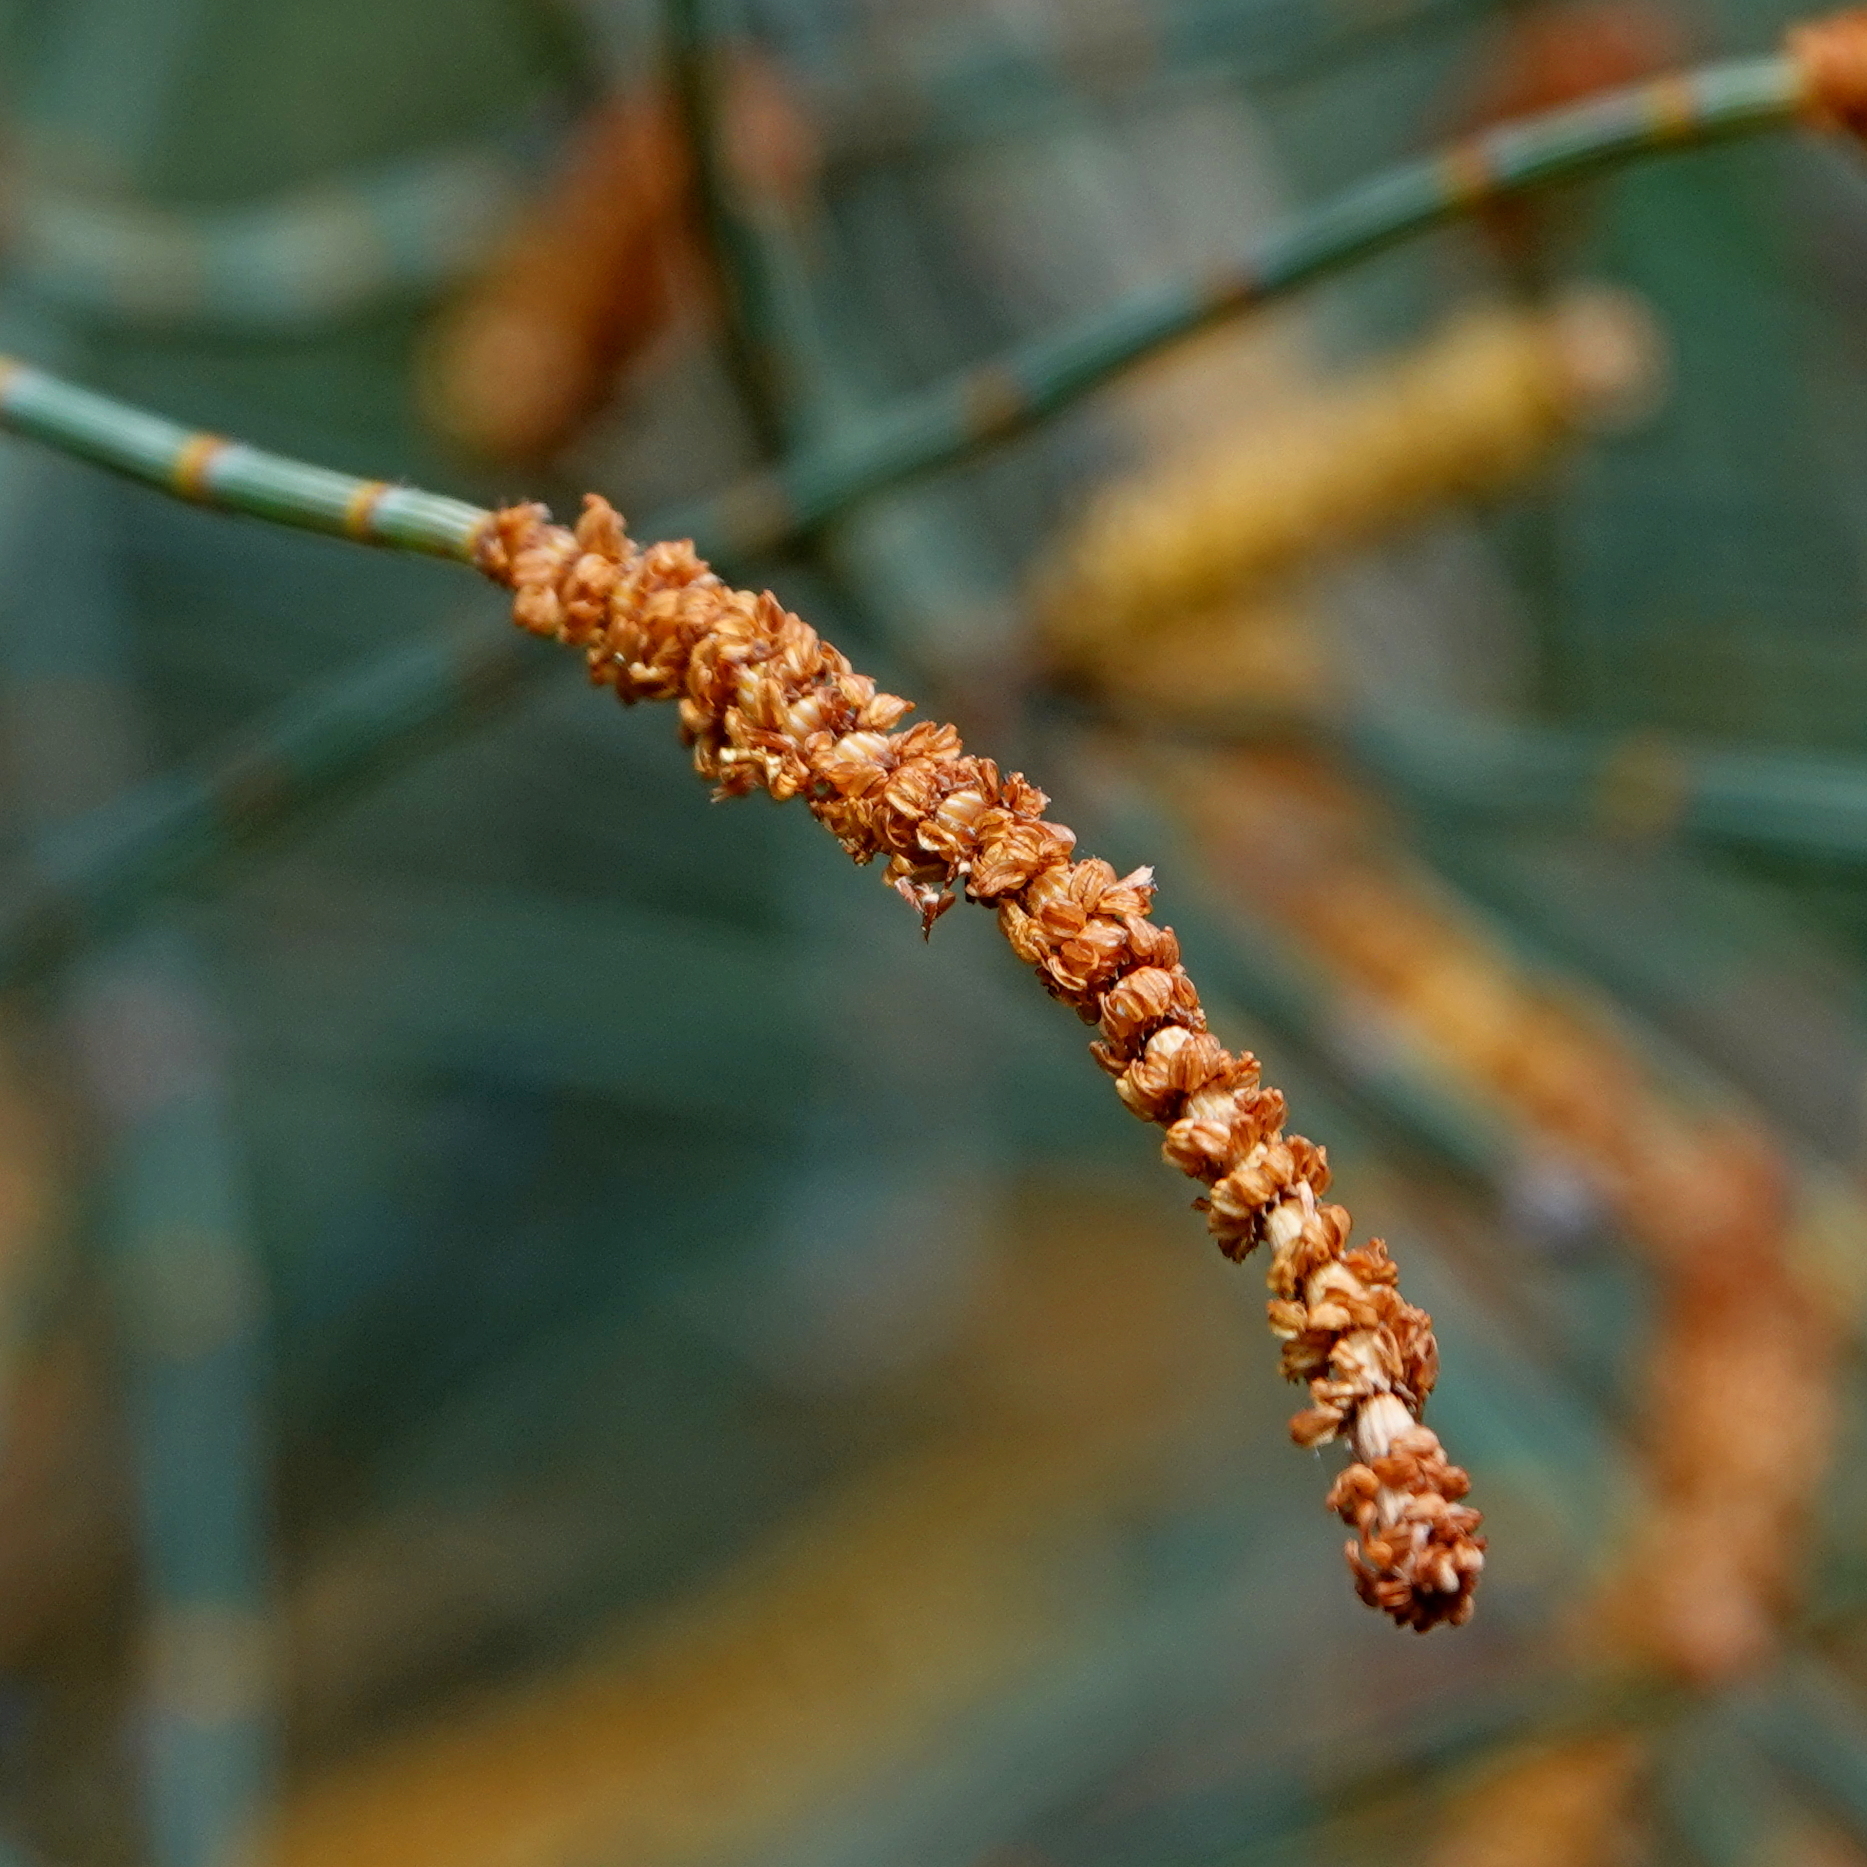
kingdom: Plantae
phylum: Tracheophyta
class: Magnoliopsida
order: Fagales
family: Casuarinaceae
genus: Allocasuarina
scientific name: Allocasuarina verticillata
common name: Drooping she-oak
